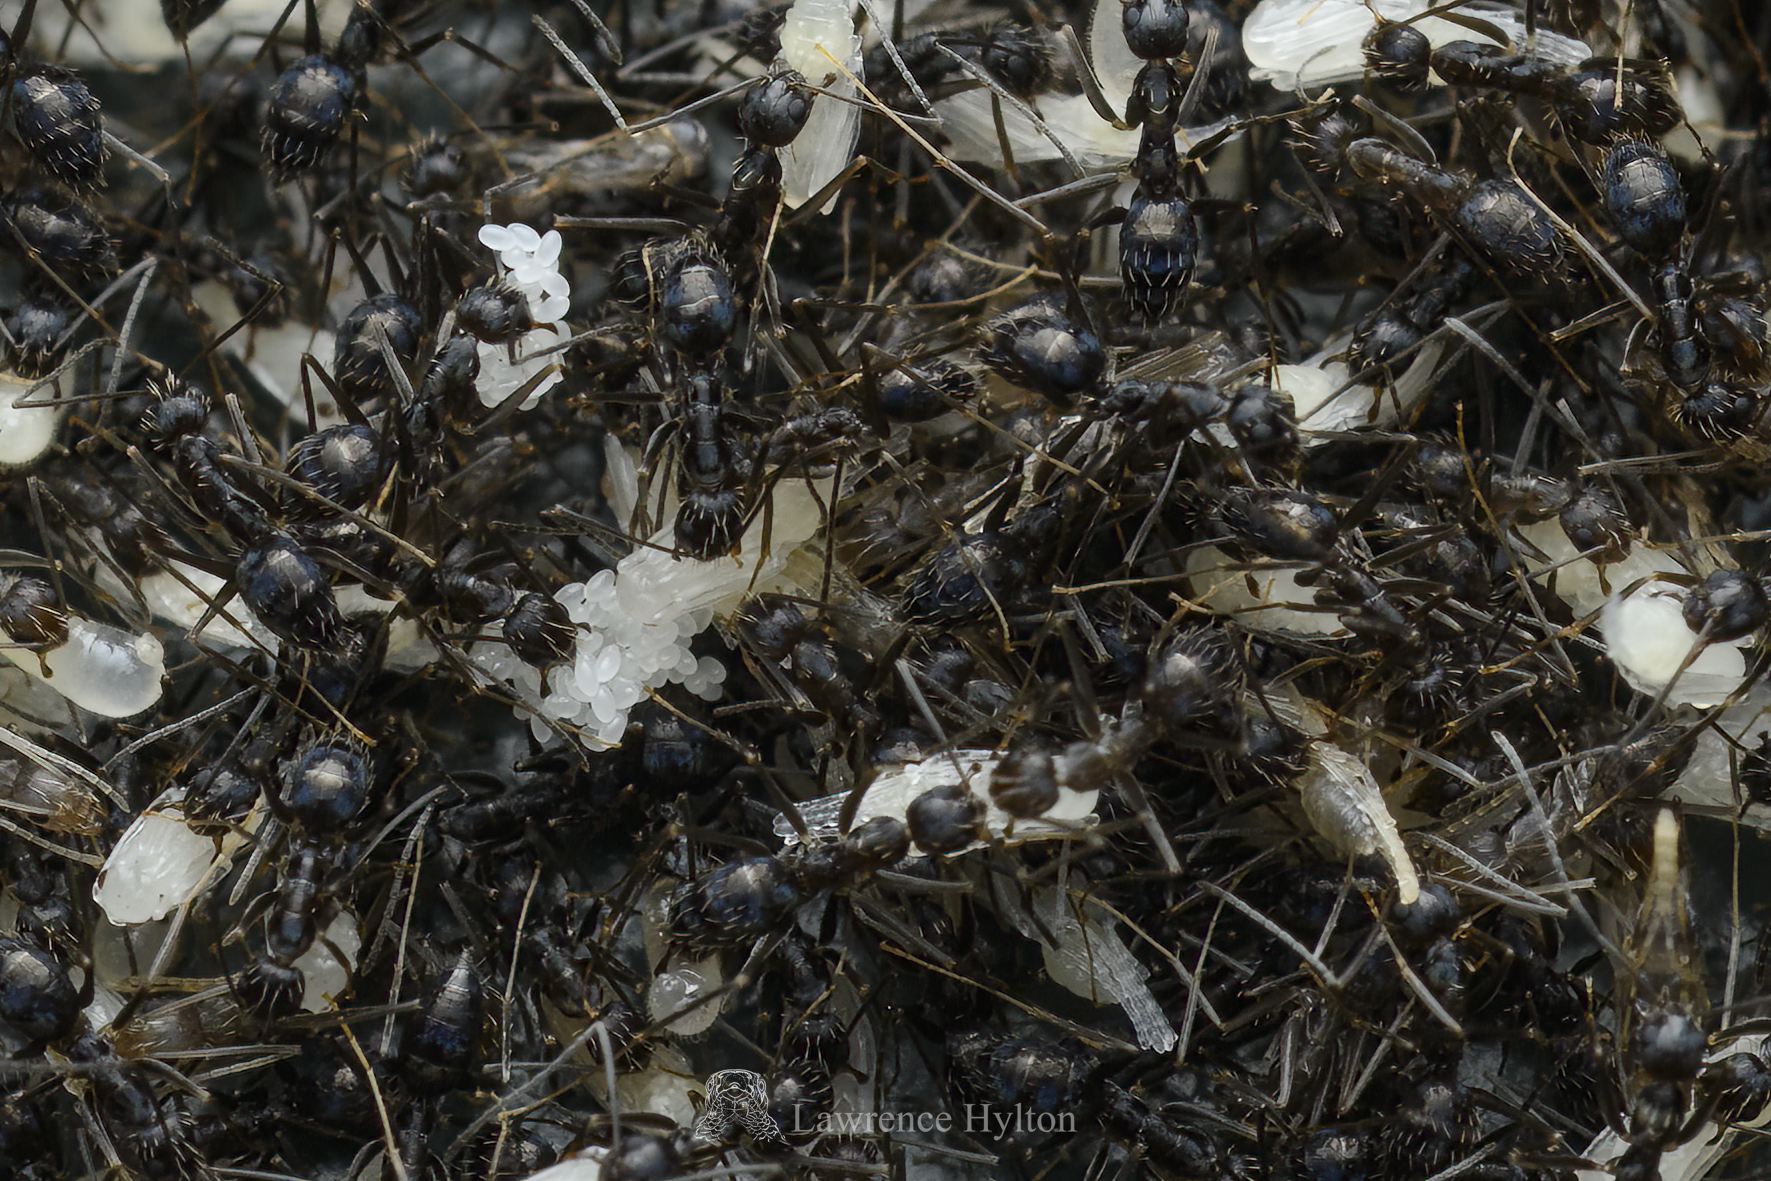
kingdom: Animalia
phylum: Arthropoda
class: Insecta
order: Hymenoptera
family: Formicidae
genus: Paratrechina
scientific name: Paratrechina longicornis
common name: Longhorned crazy ant
